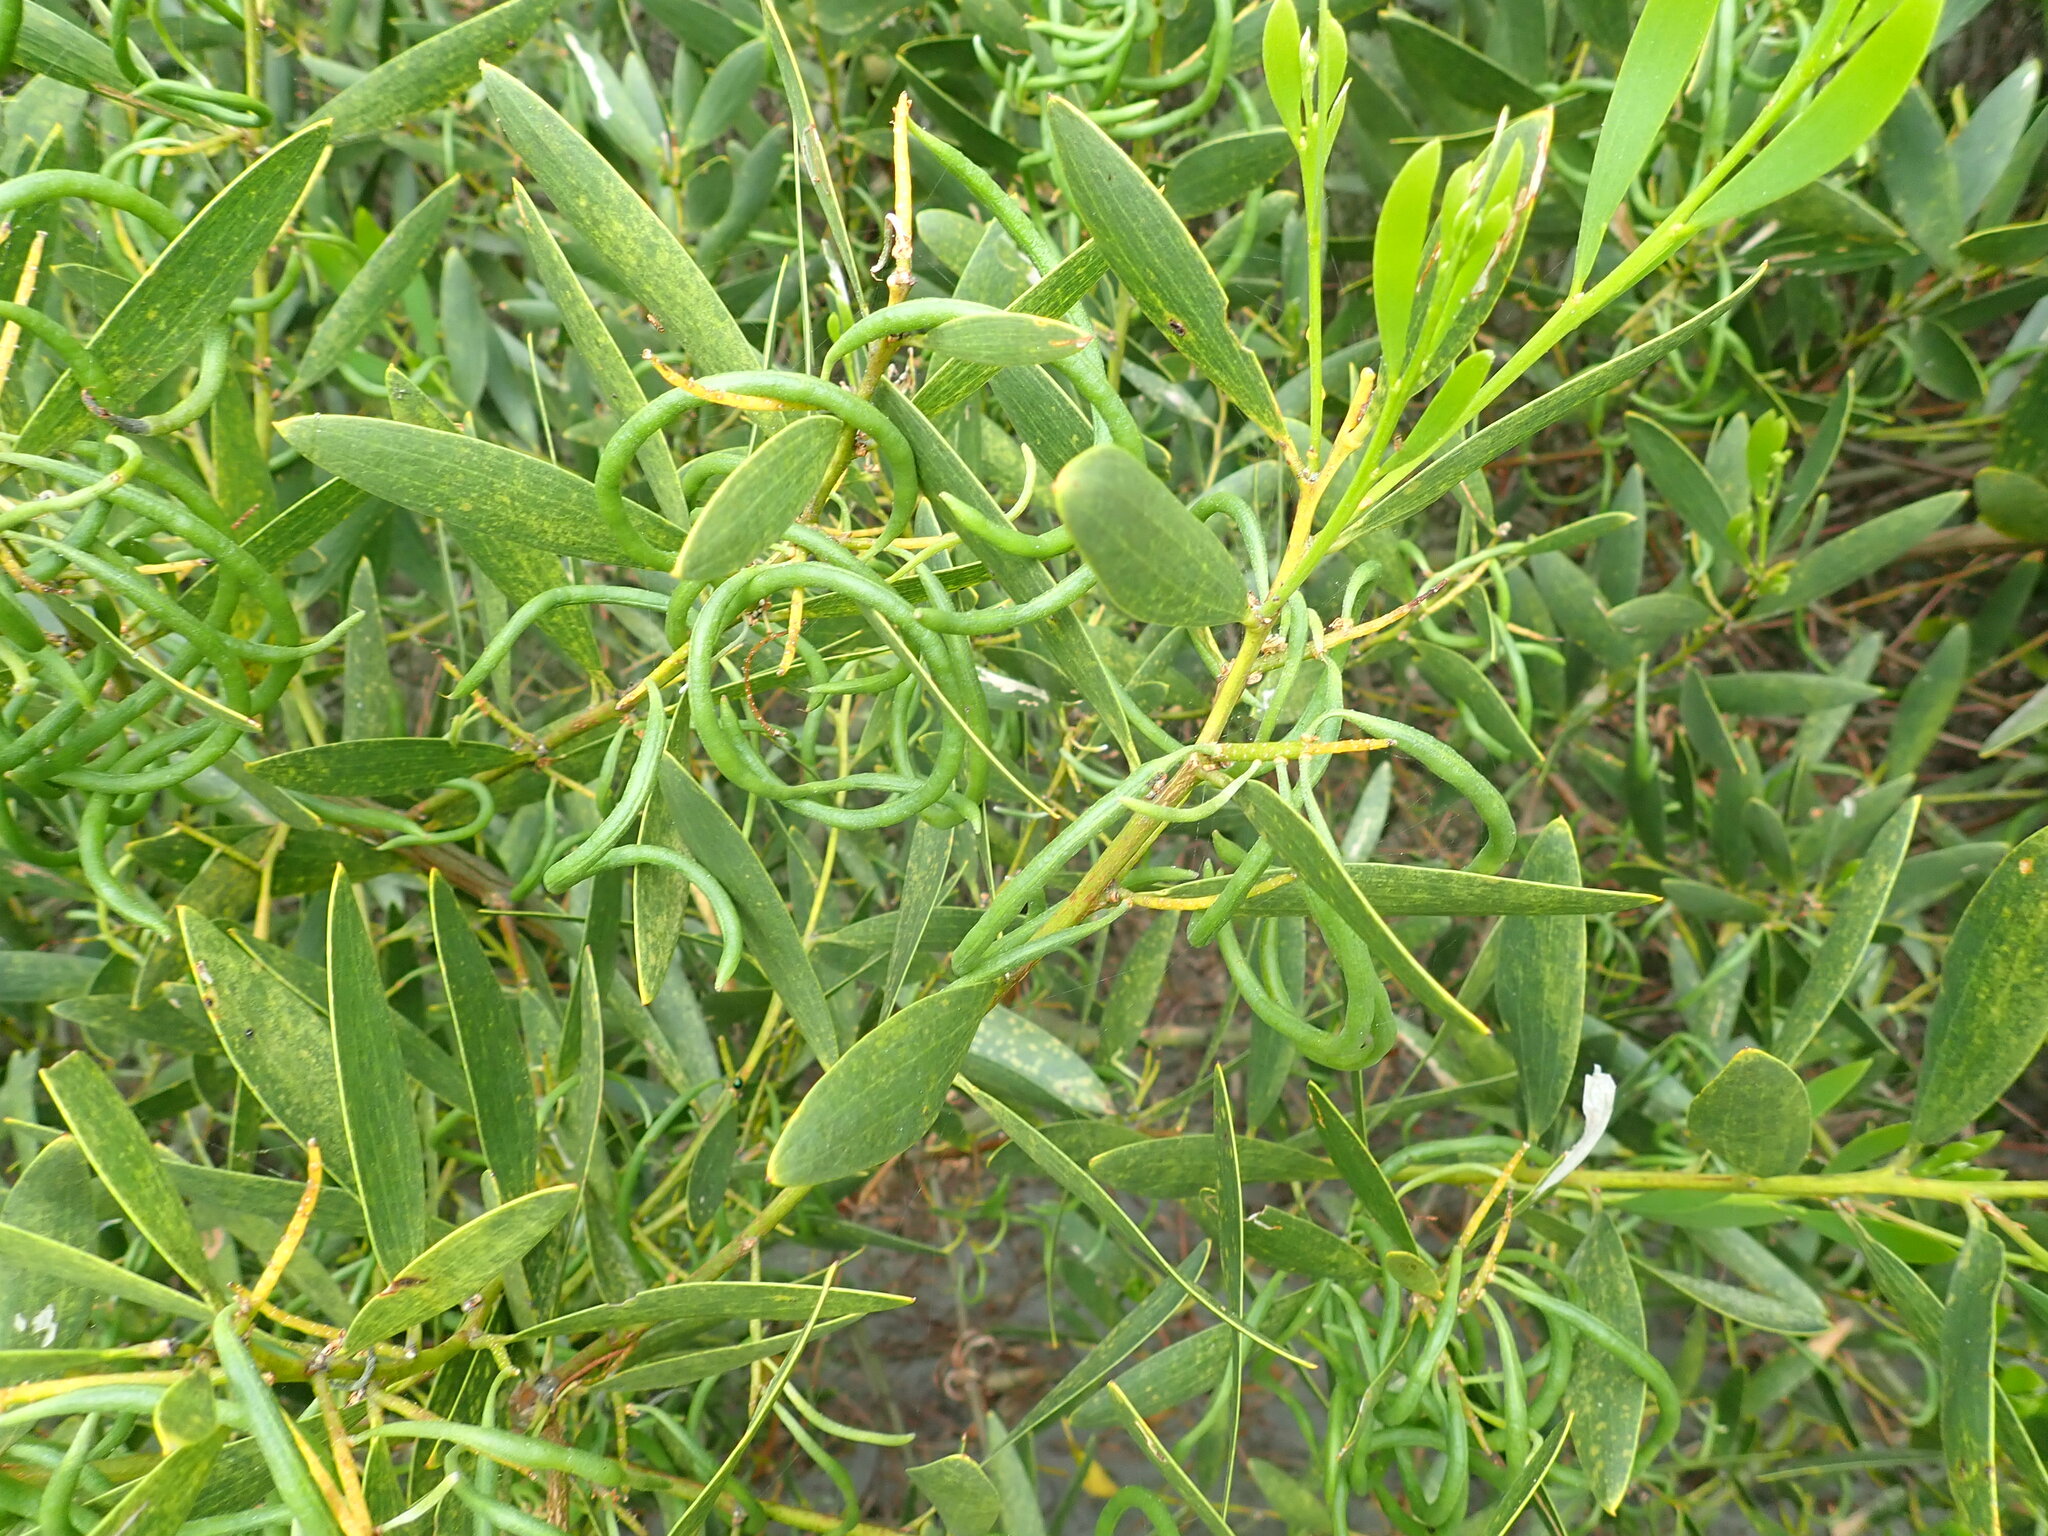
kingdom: Plantae
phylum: Tracheophyta
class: Magnoliopsida
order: Fabales
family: Fabaceae
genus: Acacia
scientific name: Acacia longifolia
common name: Sydney golden wattle
